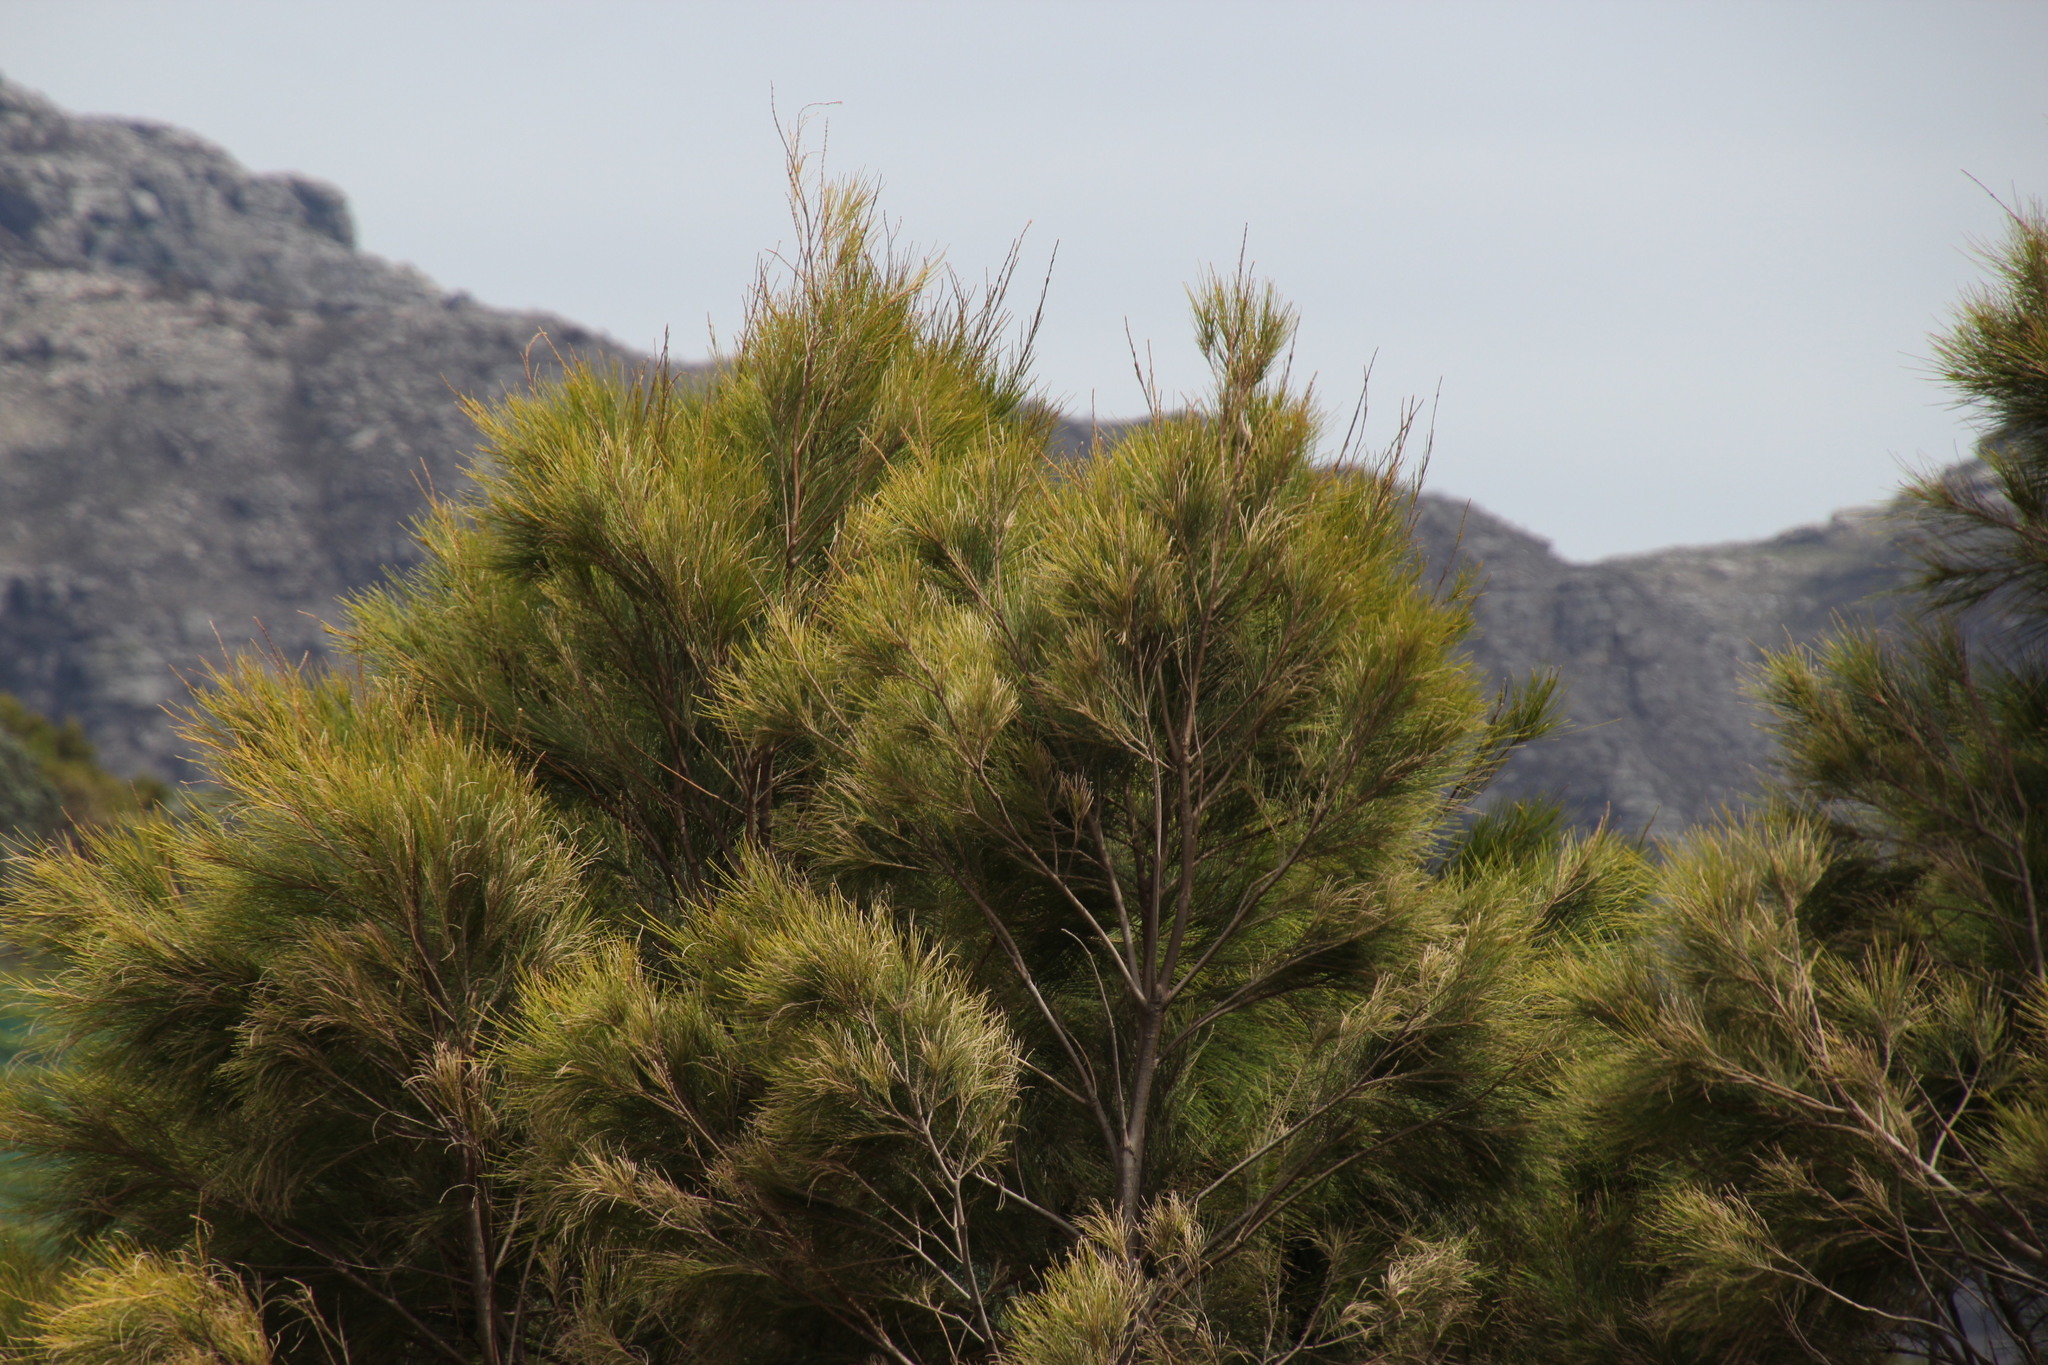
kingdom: Plantae
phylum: Tracheophyta
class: Magnoliopsida
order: Fagales
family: Casuarinaceae
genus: Casuarina
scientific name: Casuarina cunninghamiana
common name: River sheoak
